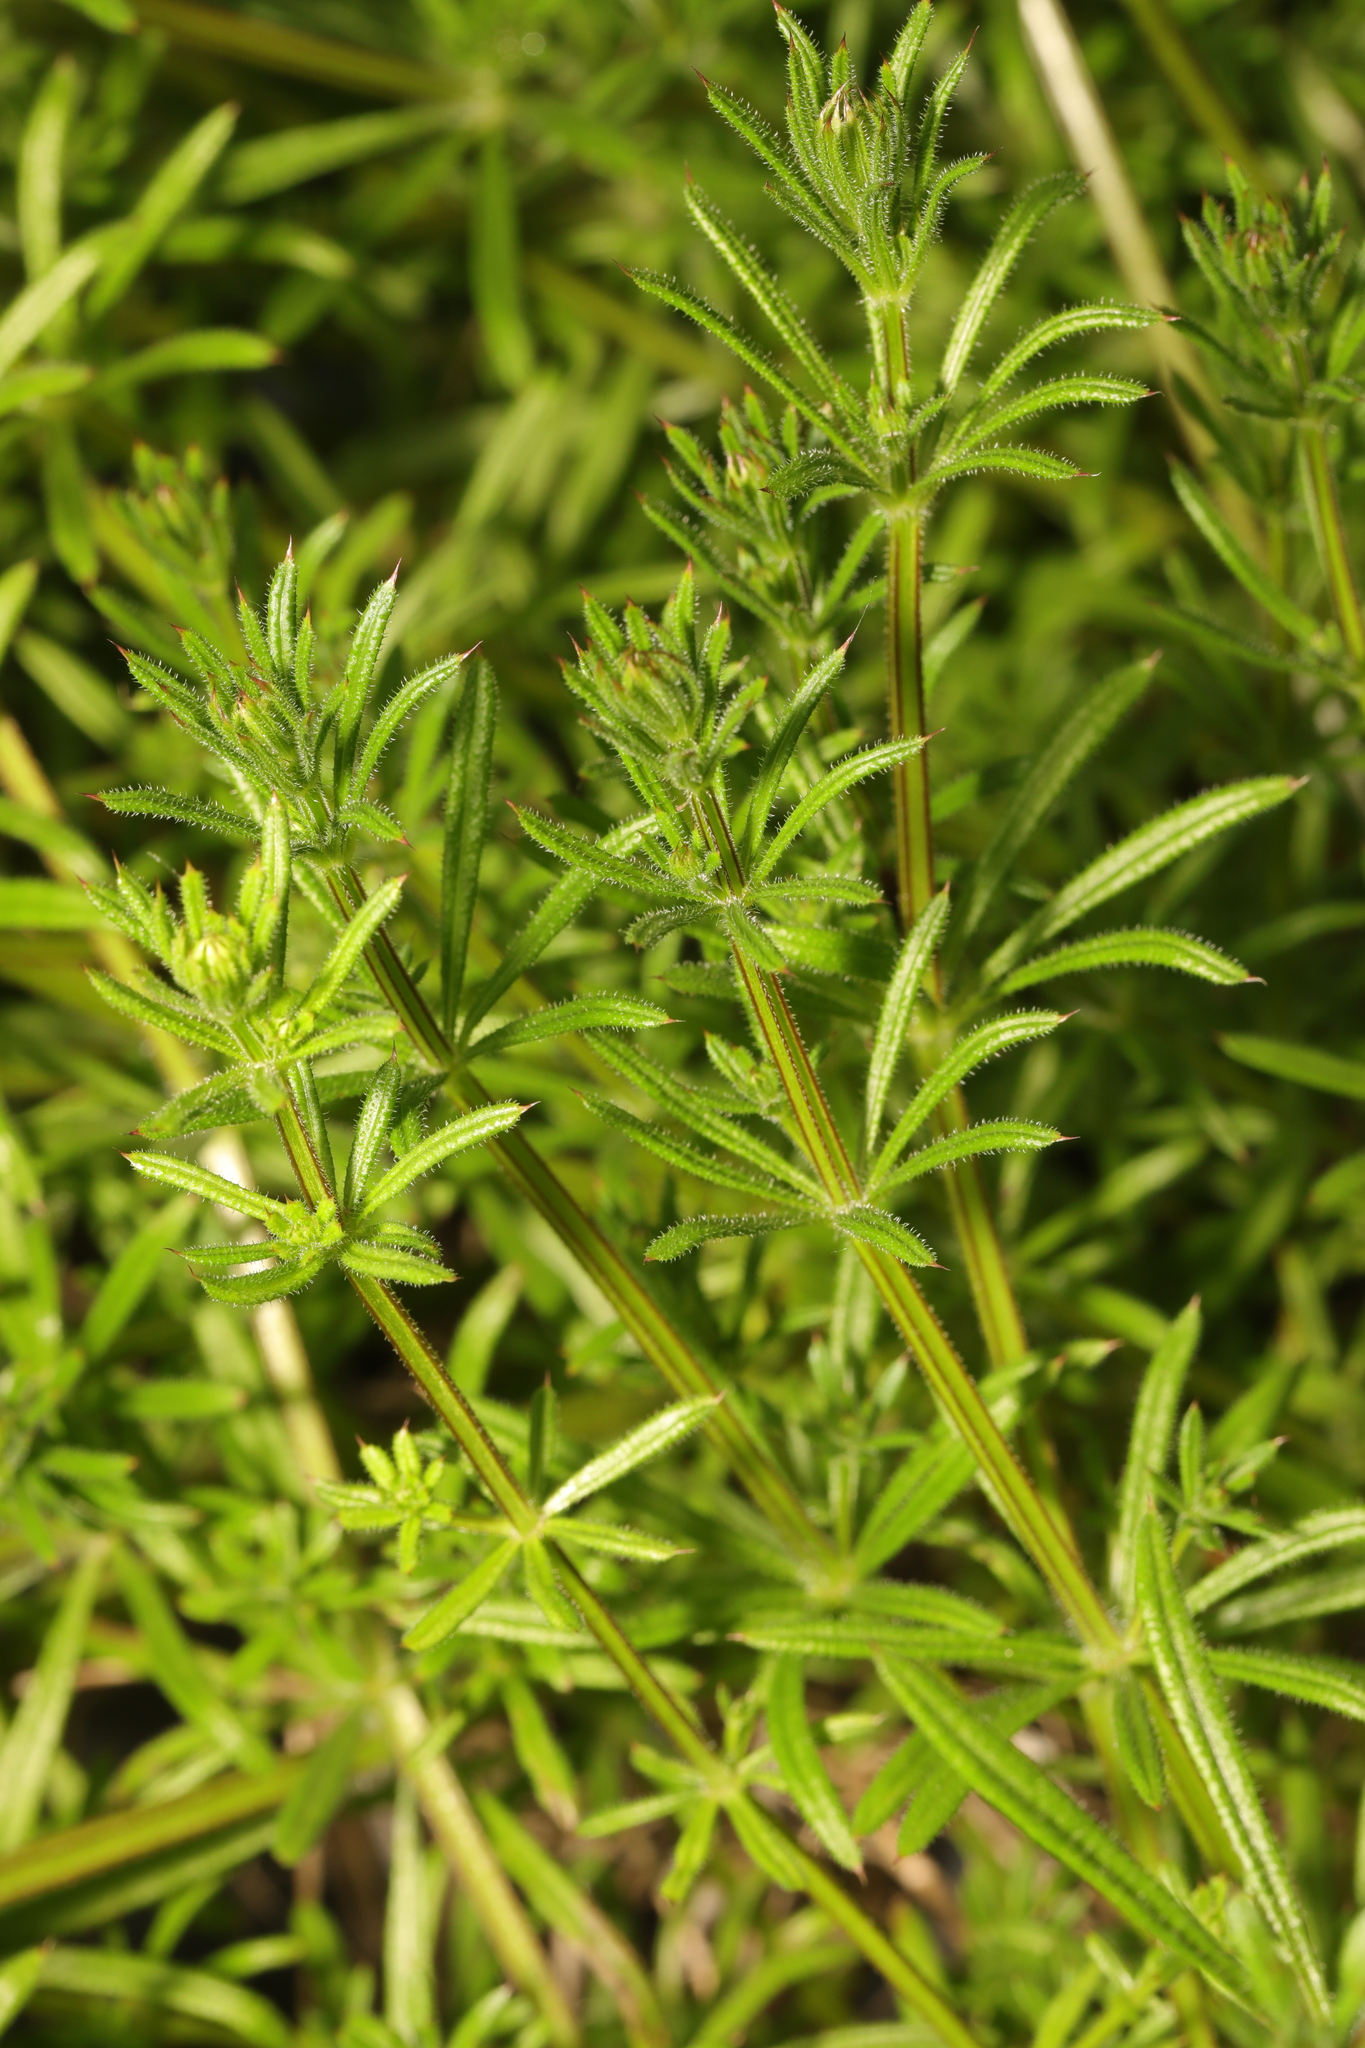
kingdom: Plantae
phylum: Tracheophyta
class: Magnoliopsida
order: Gentianales
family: Rubiaceae
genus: Galium
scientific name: Galium aparine
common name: Cleavers
